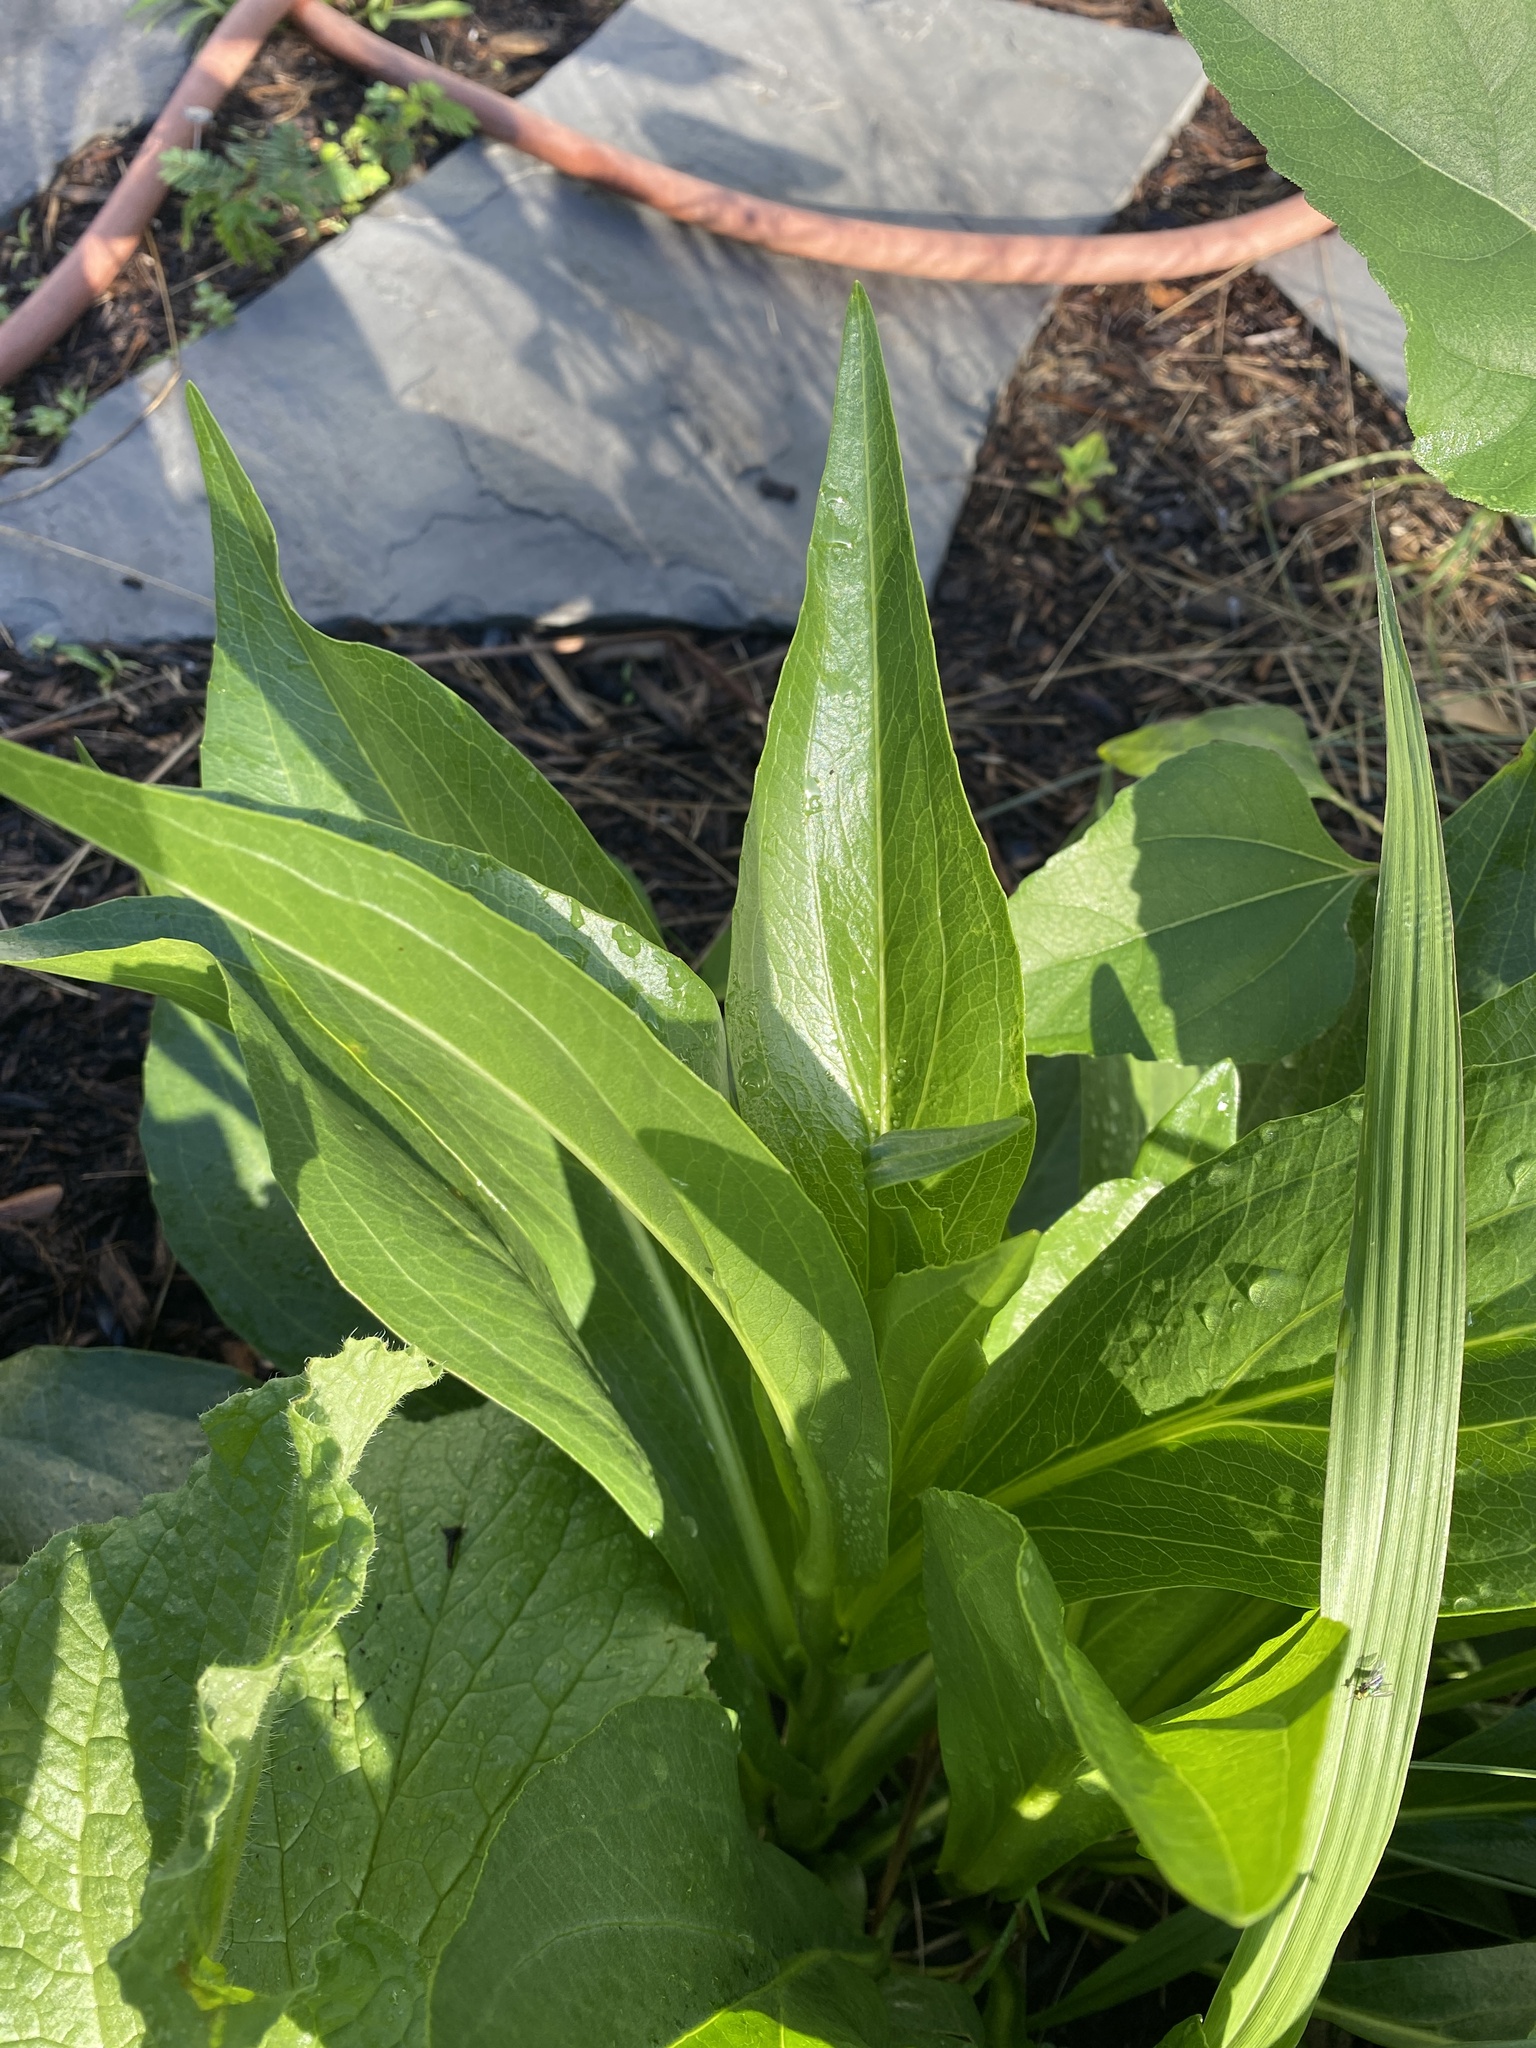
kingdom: Plantae
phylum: Tracheophyta
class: Magnoliopsida
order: Asterales
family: Asteraceae
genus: Rudbeckia
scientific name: Rudbeckia texana
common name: Texas coneflower
